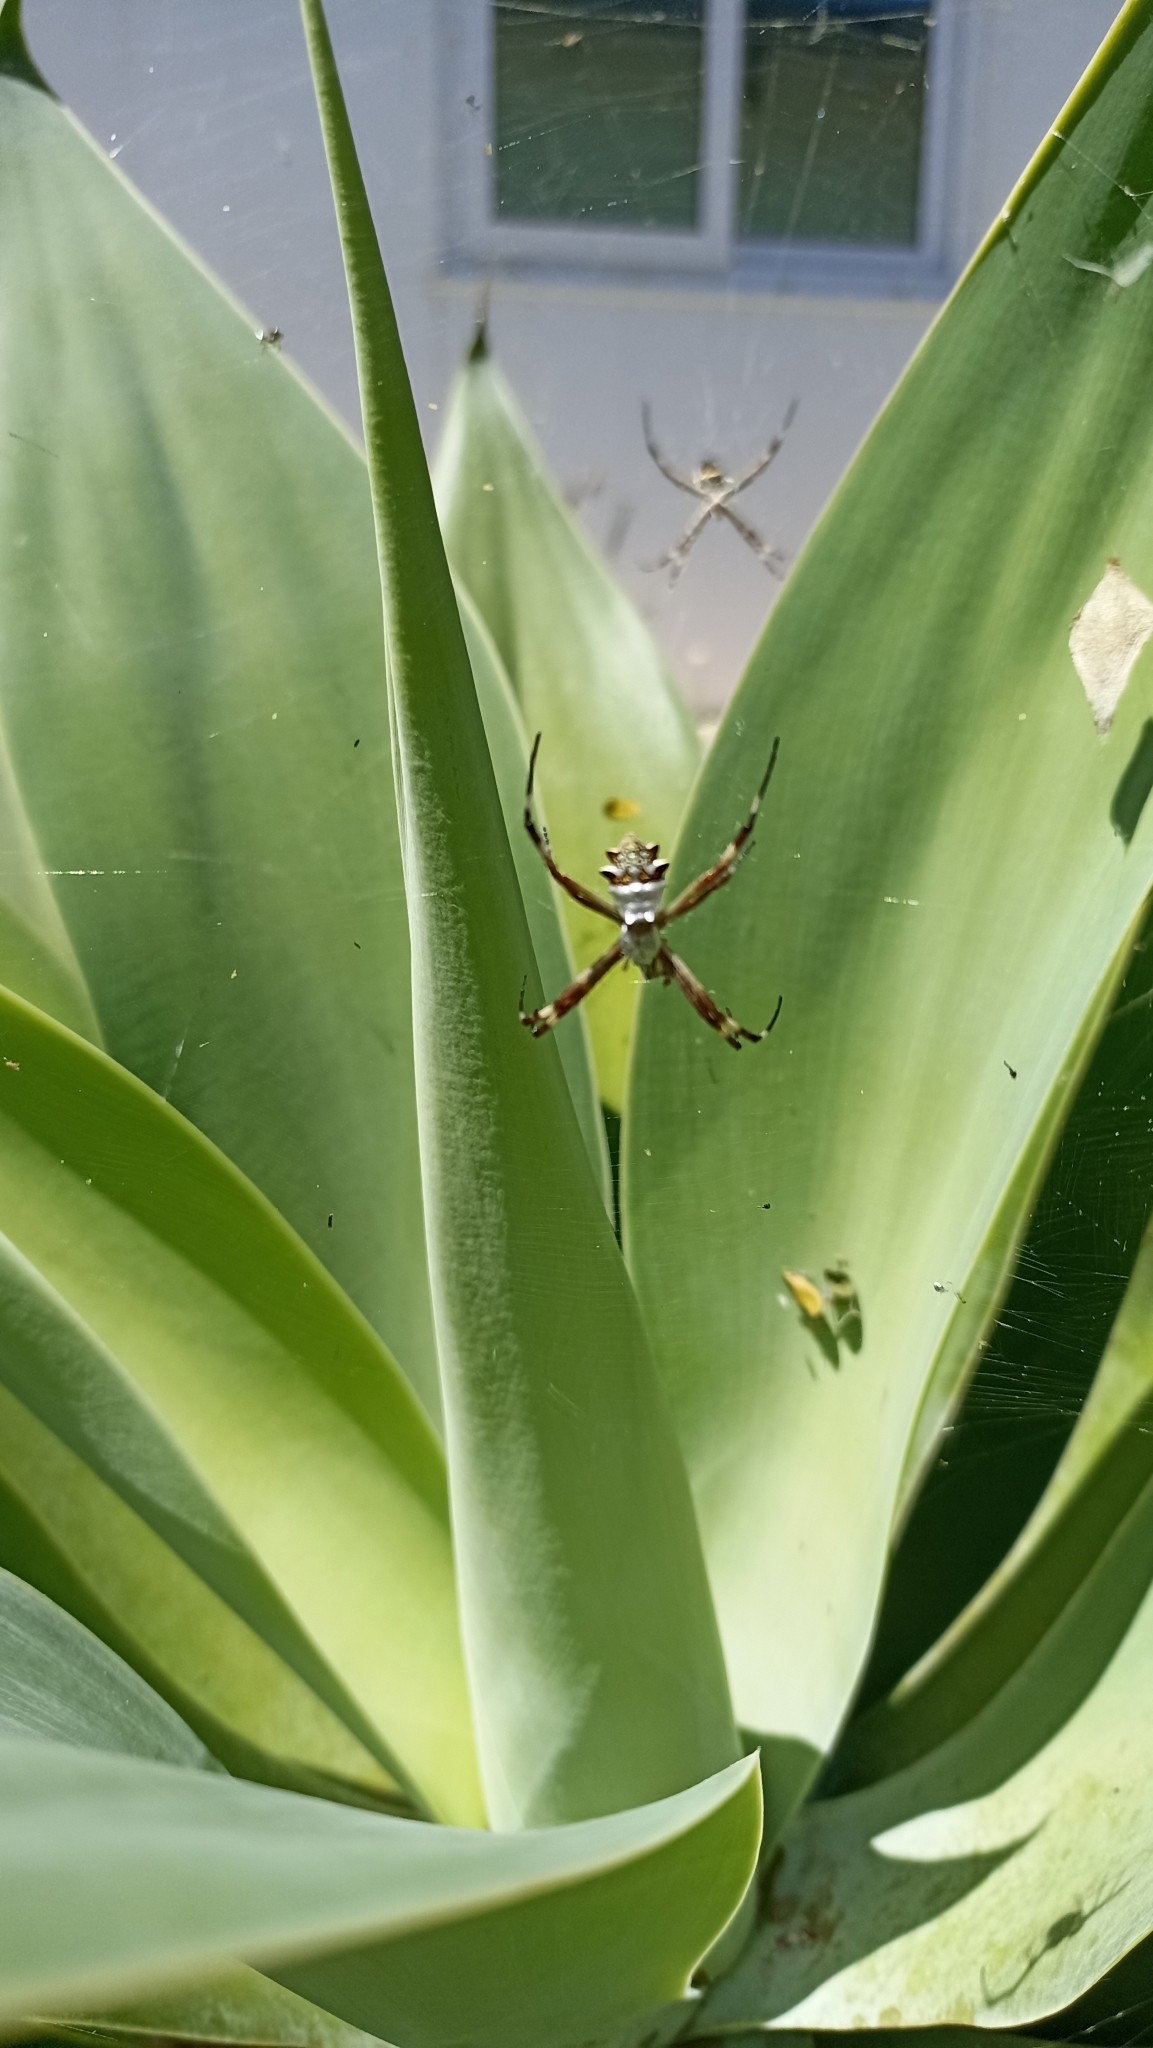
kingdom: Animalia
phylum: Arthropoda
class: Arachnida
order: Araneae
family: Araneidae
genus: Argiope
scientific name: Argiope argentata
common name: Orb weavers
